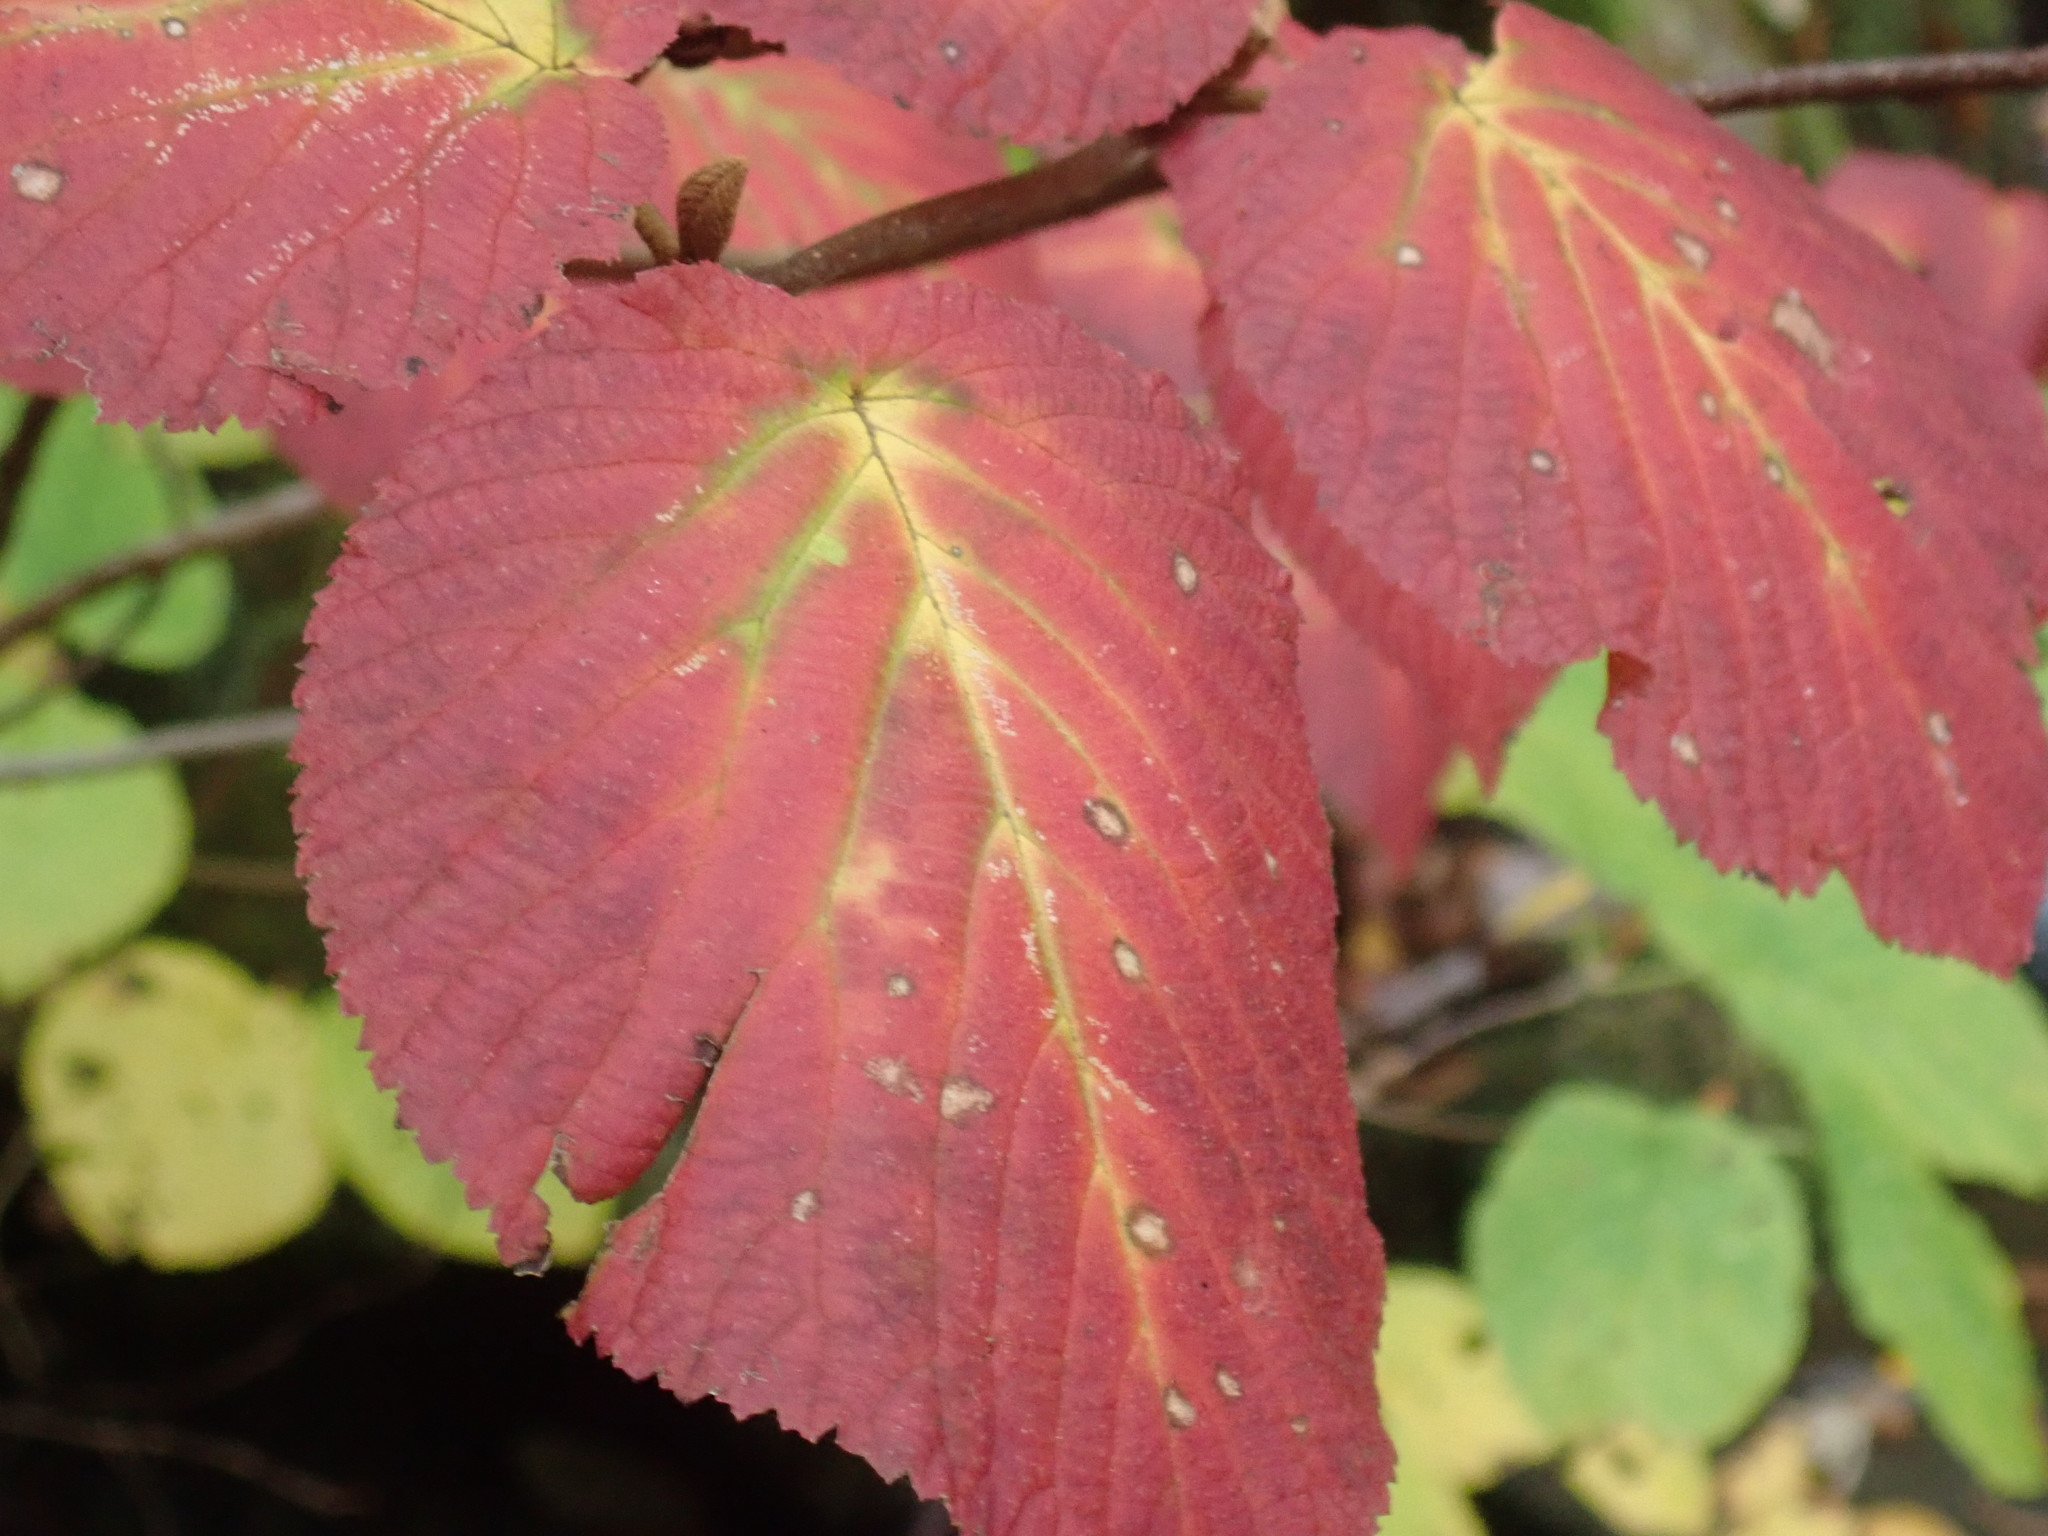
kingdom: Plantae
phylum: Tracheophyta
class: Magnoliopsida
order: Dipsacales
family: Viburnaceae
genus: Viburnum
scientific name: Viburnum lantanoides
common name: Hobblebush
